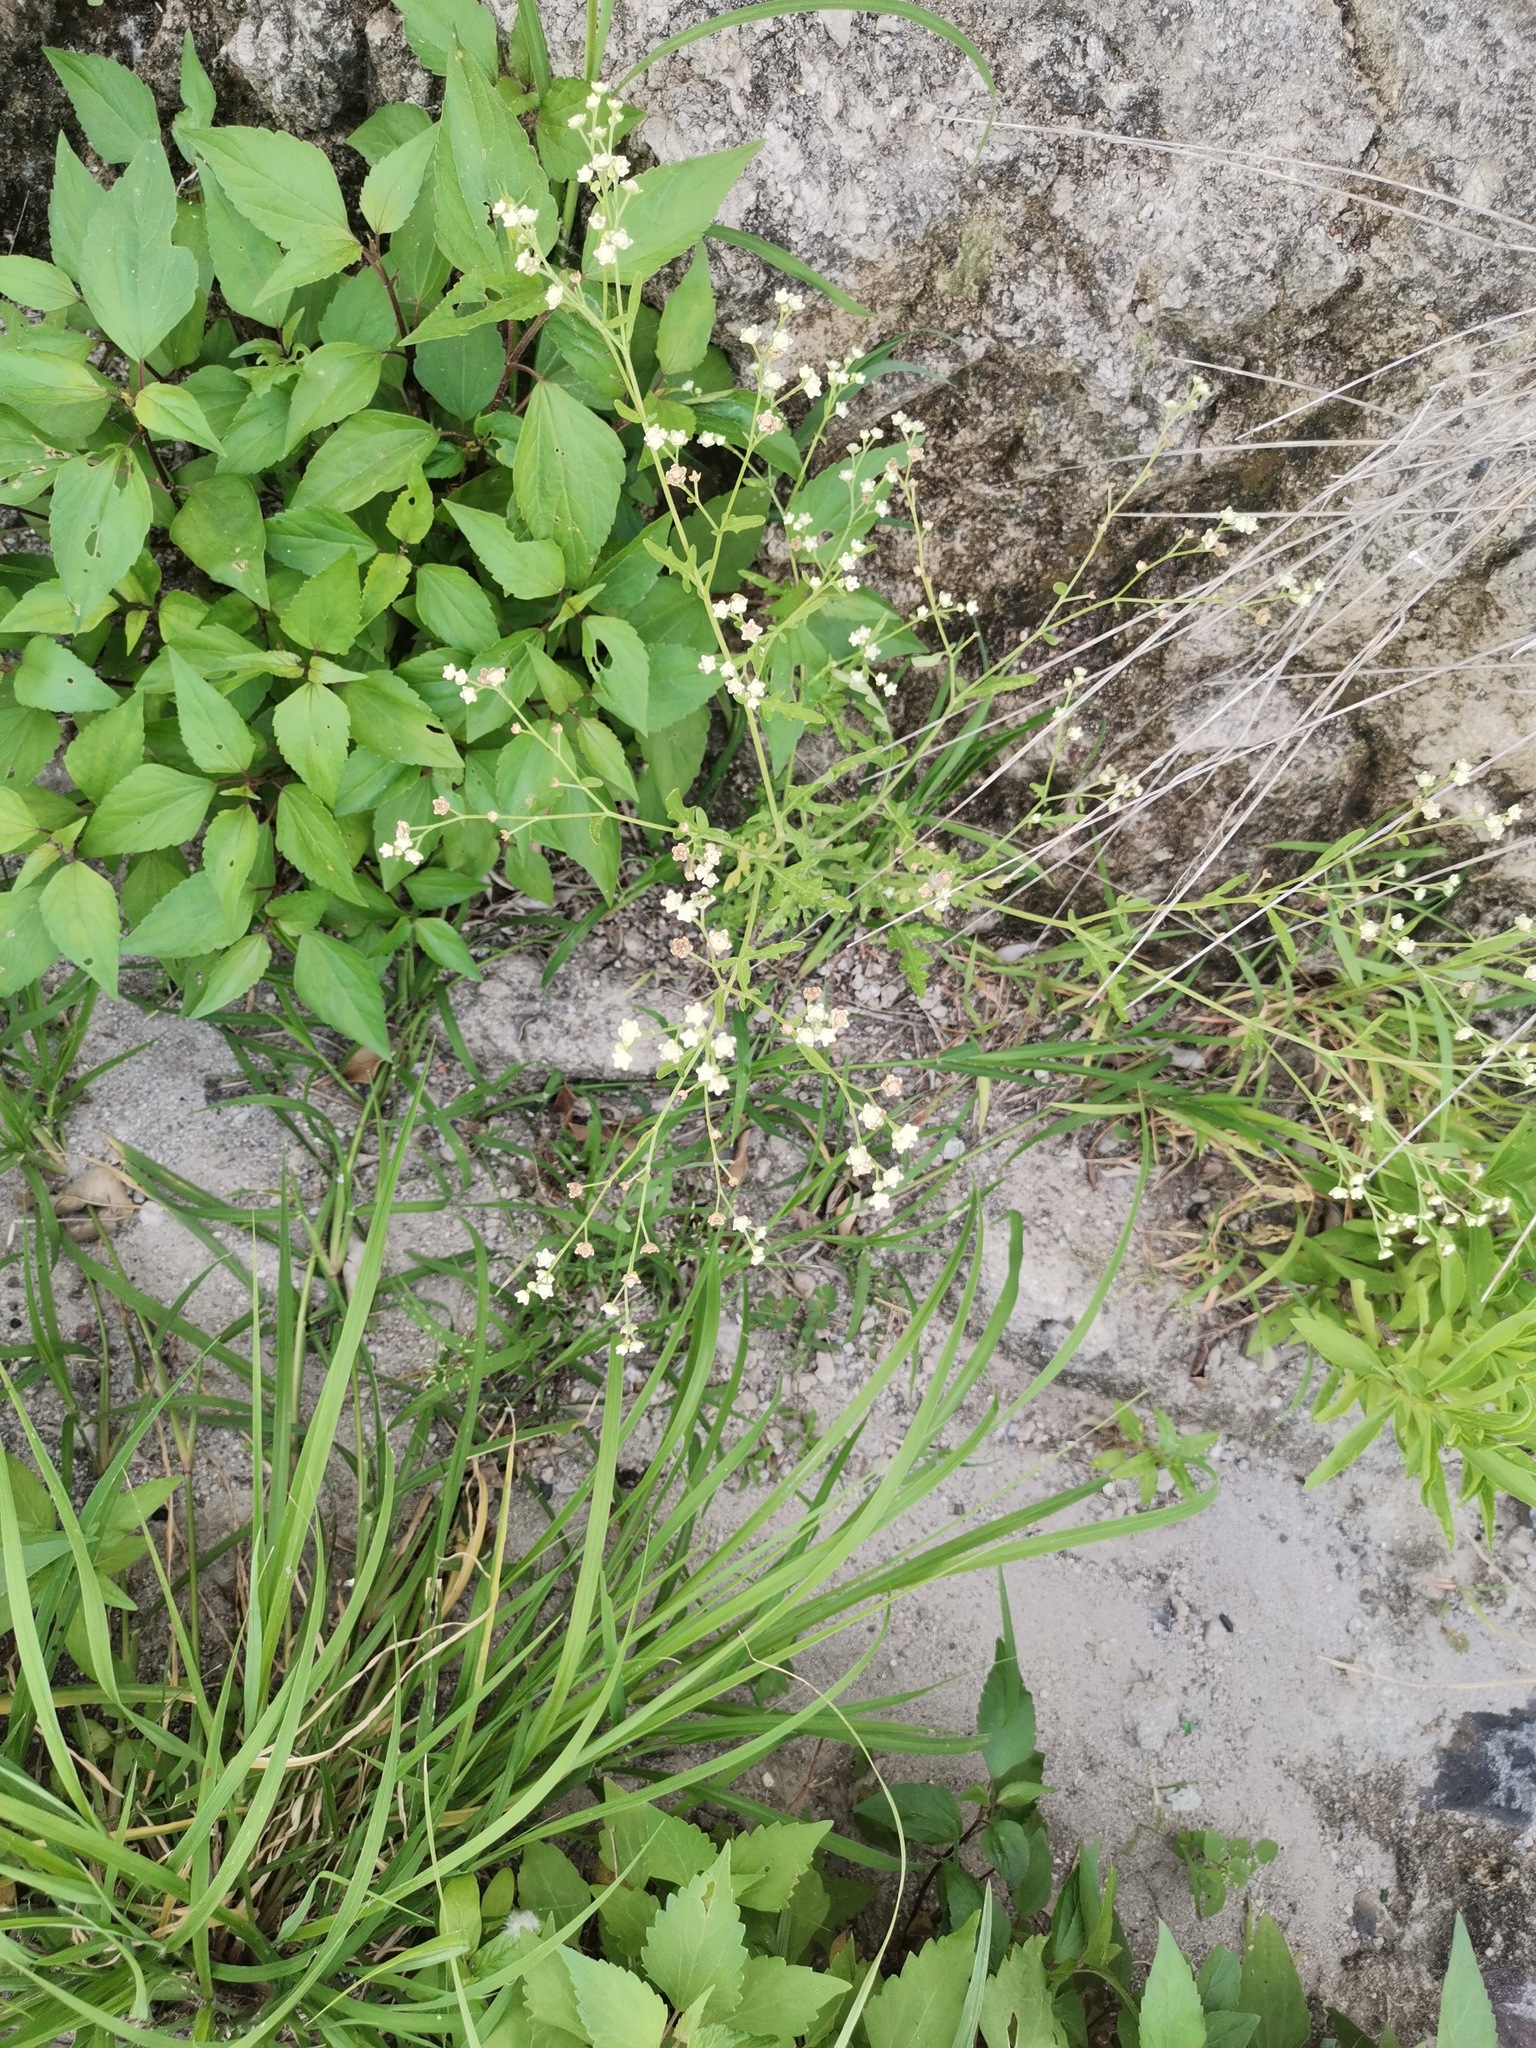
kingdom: Plantae
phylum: Tracheophyta
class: Magnoliopsida
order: Asterales
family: Asteraceae
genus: Parthenium
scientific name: Parthenium hysterophorus
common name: Santa maria feverfew
